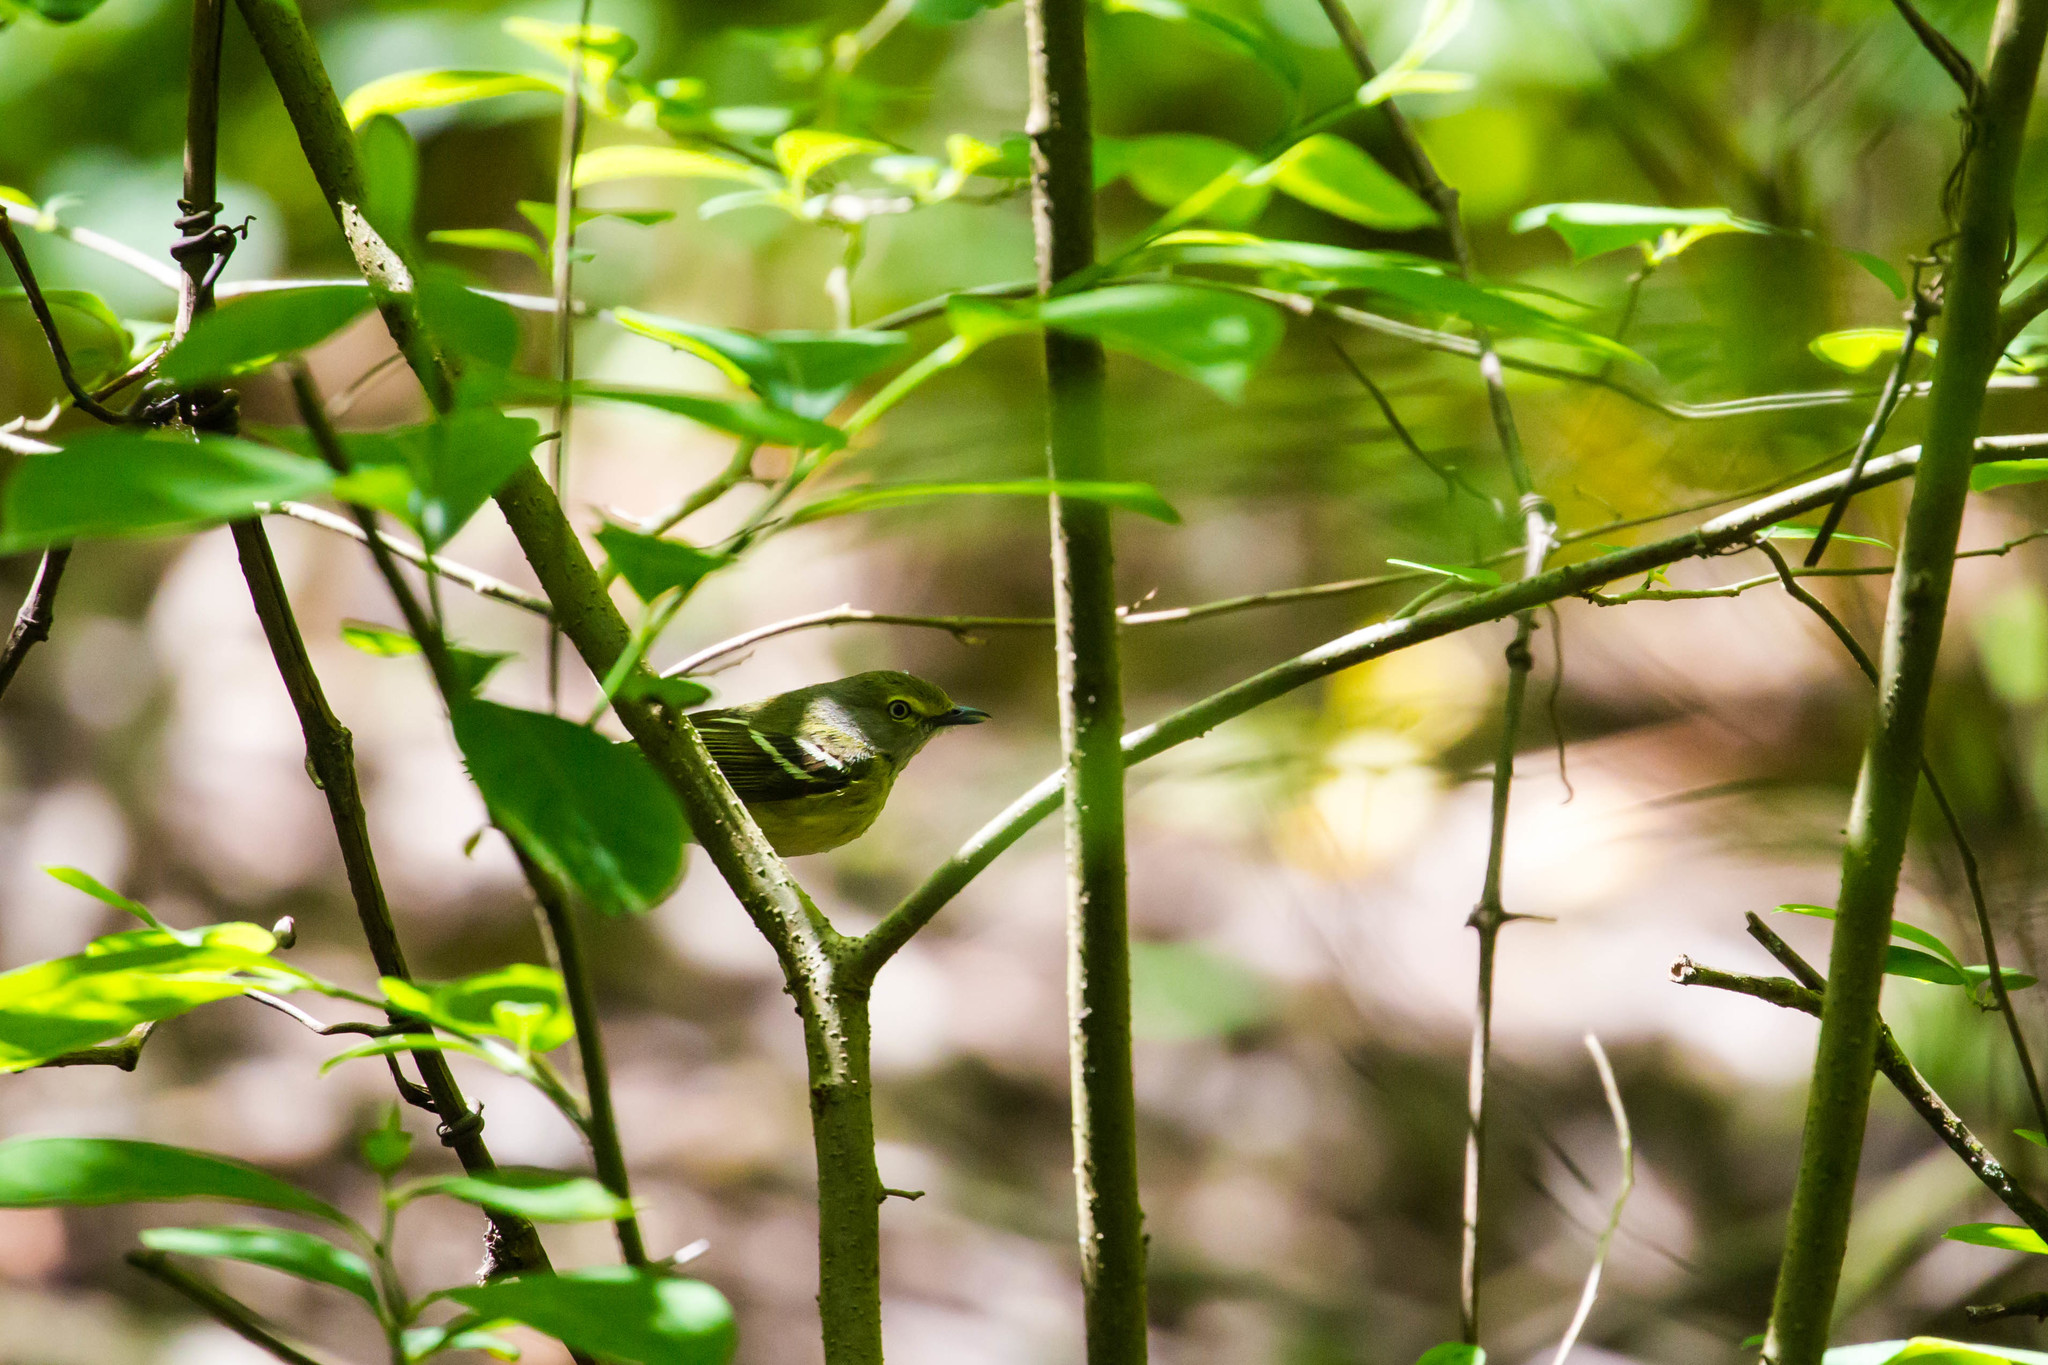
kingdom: Animalia
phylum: Chordata
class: Aves
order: Passeriformes
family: Vireonidae
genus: Vireo
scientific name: Vireo griseus
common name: White-eyed vireo
